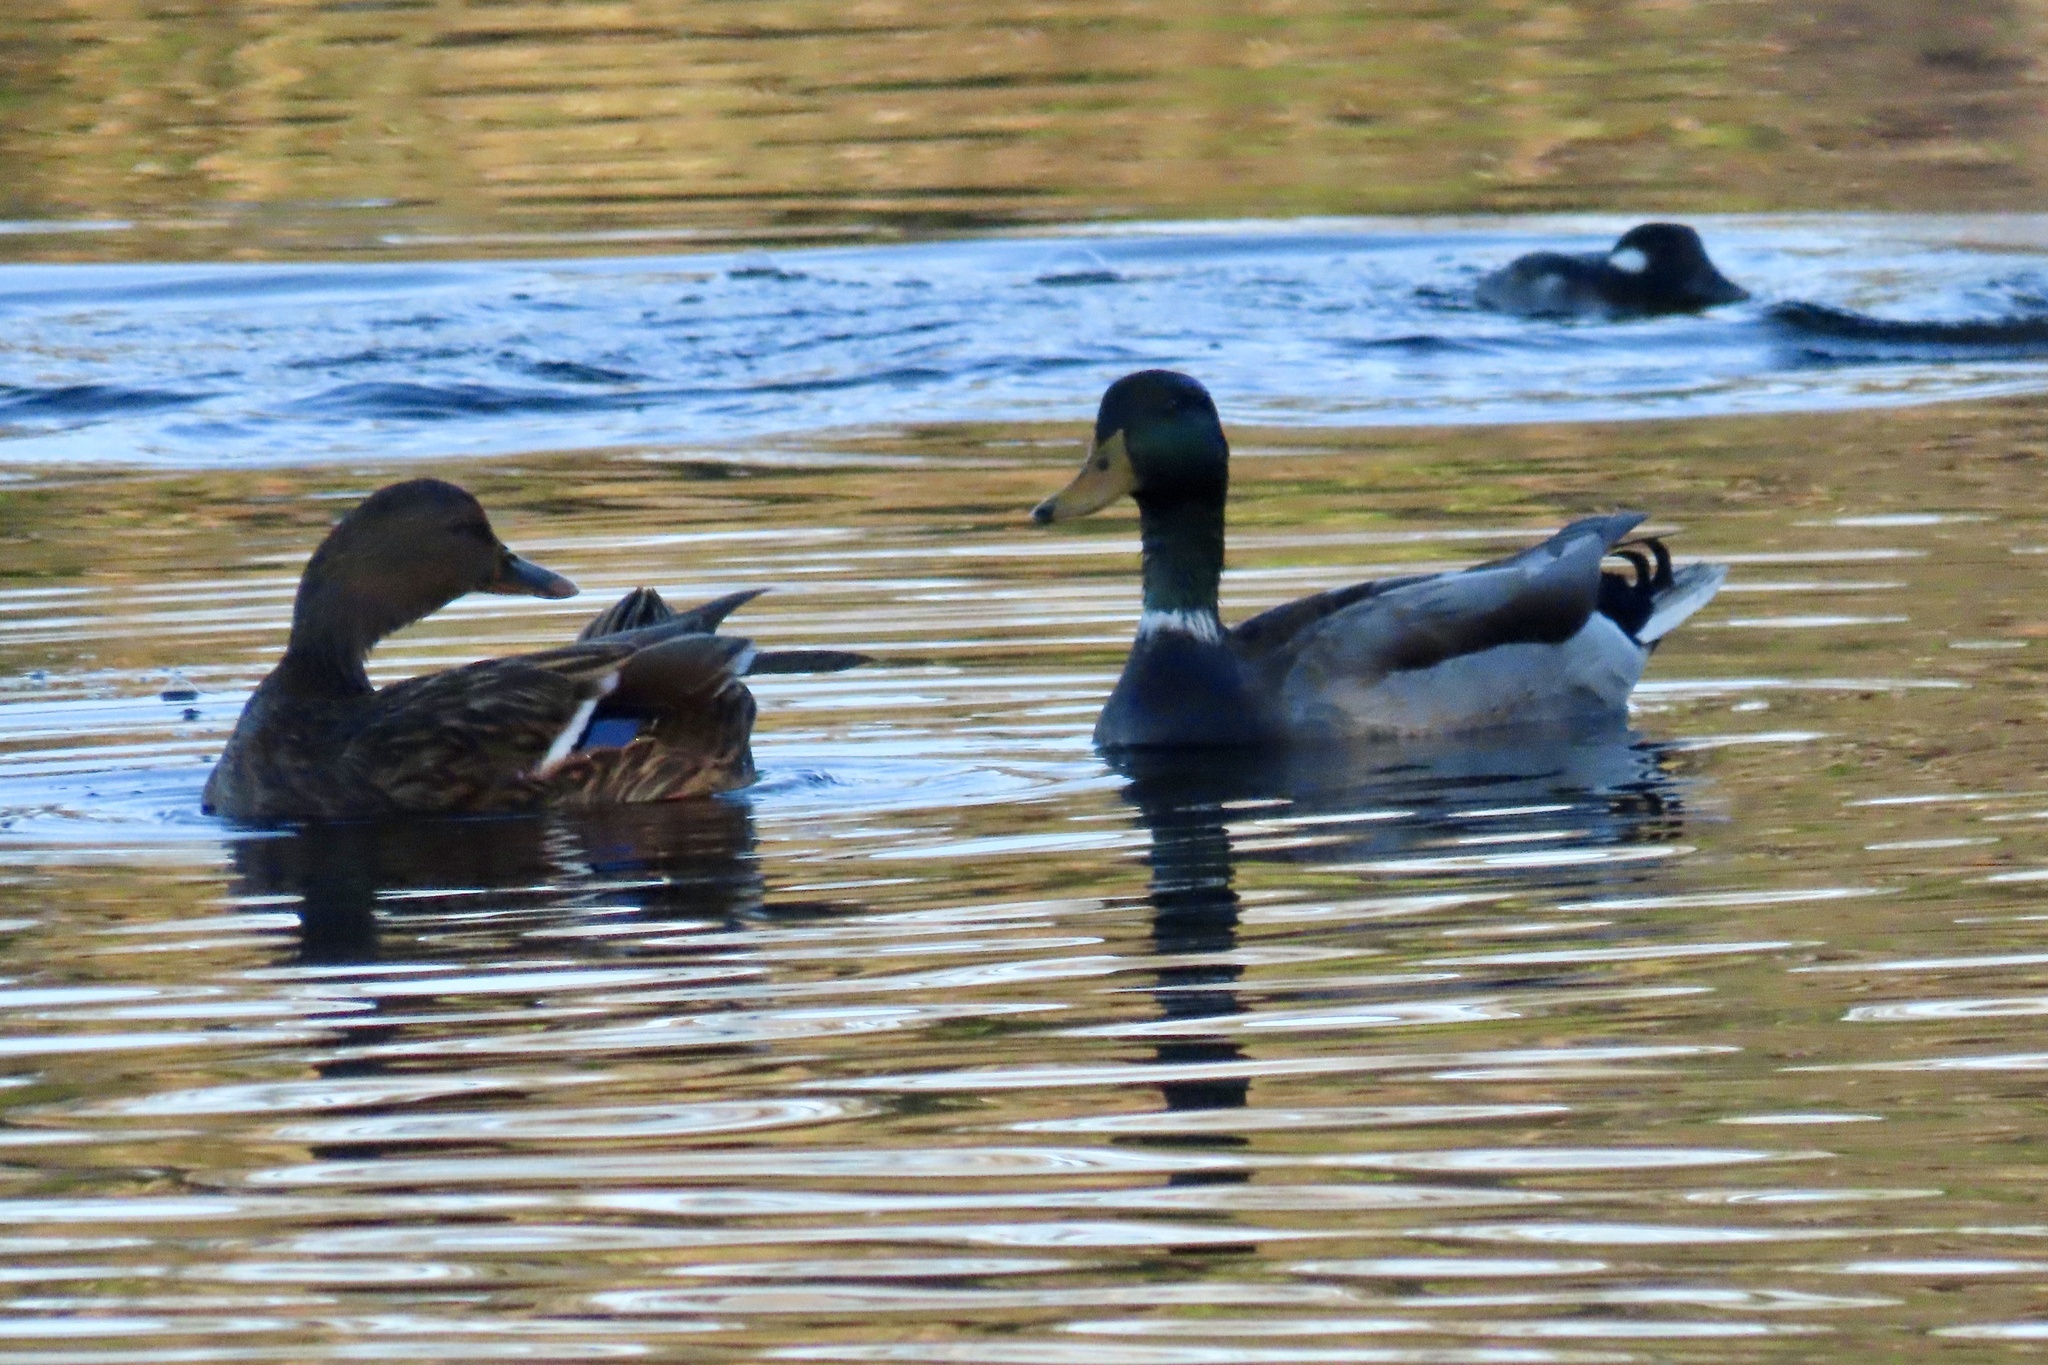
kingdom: Animalia
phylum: Chordata
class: Aves
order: Anseriformes
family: Anatidae
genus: Anas
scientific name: Anas platyrhynchos
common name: Mallard
